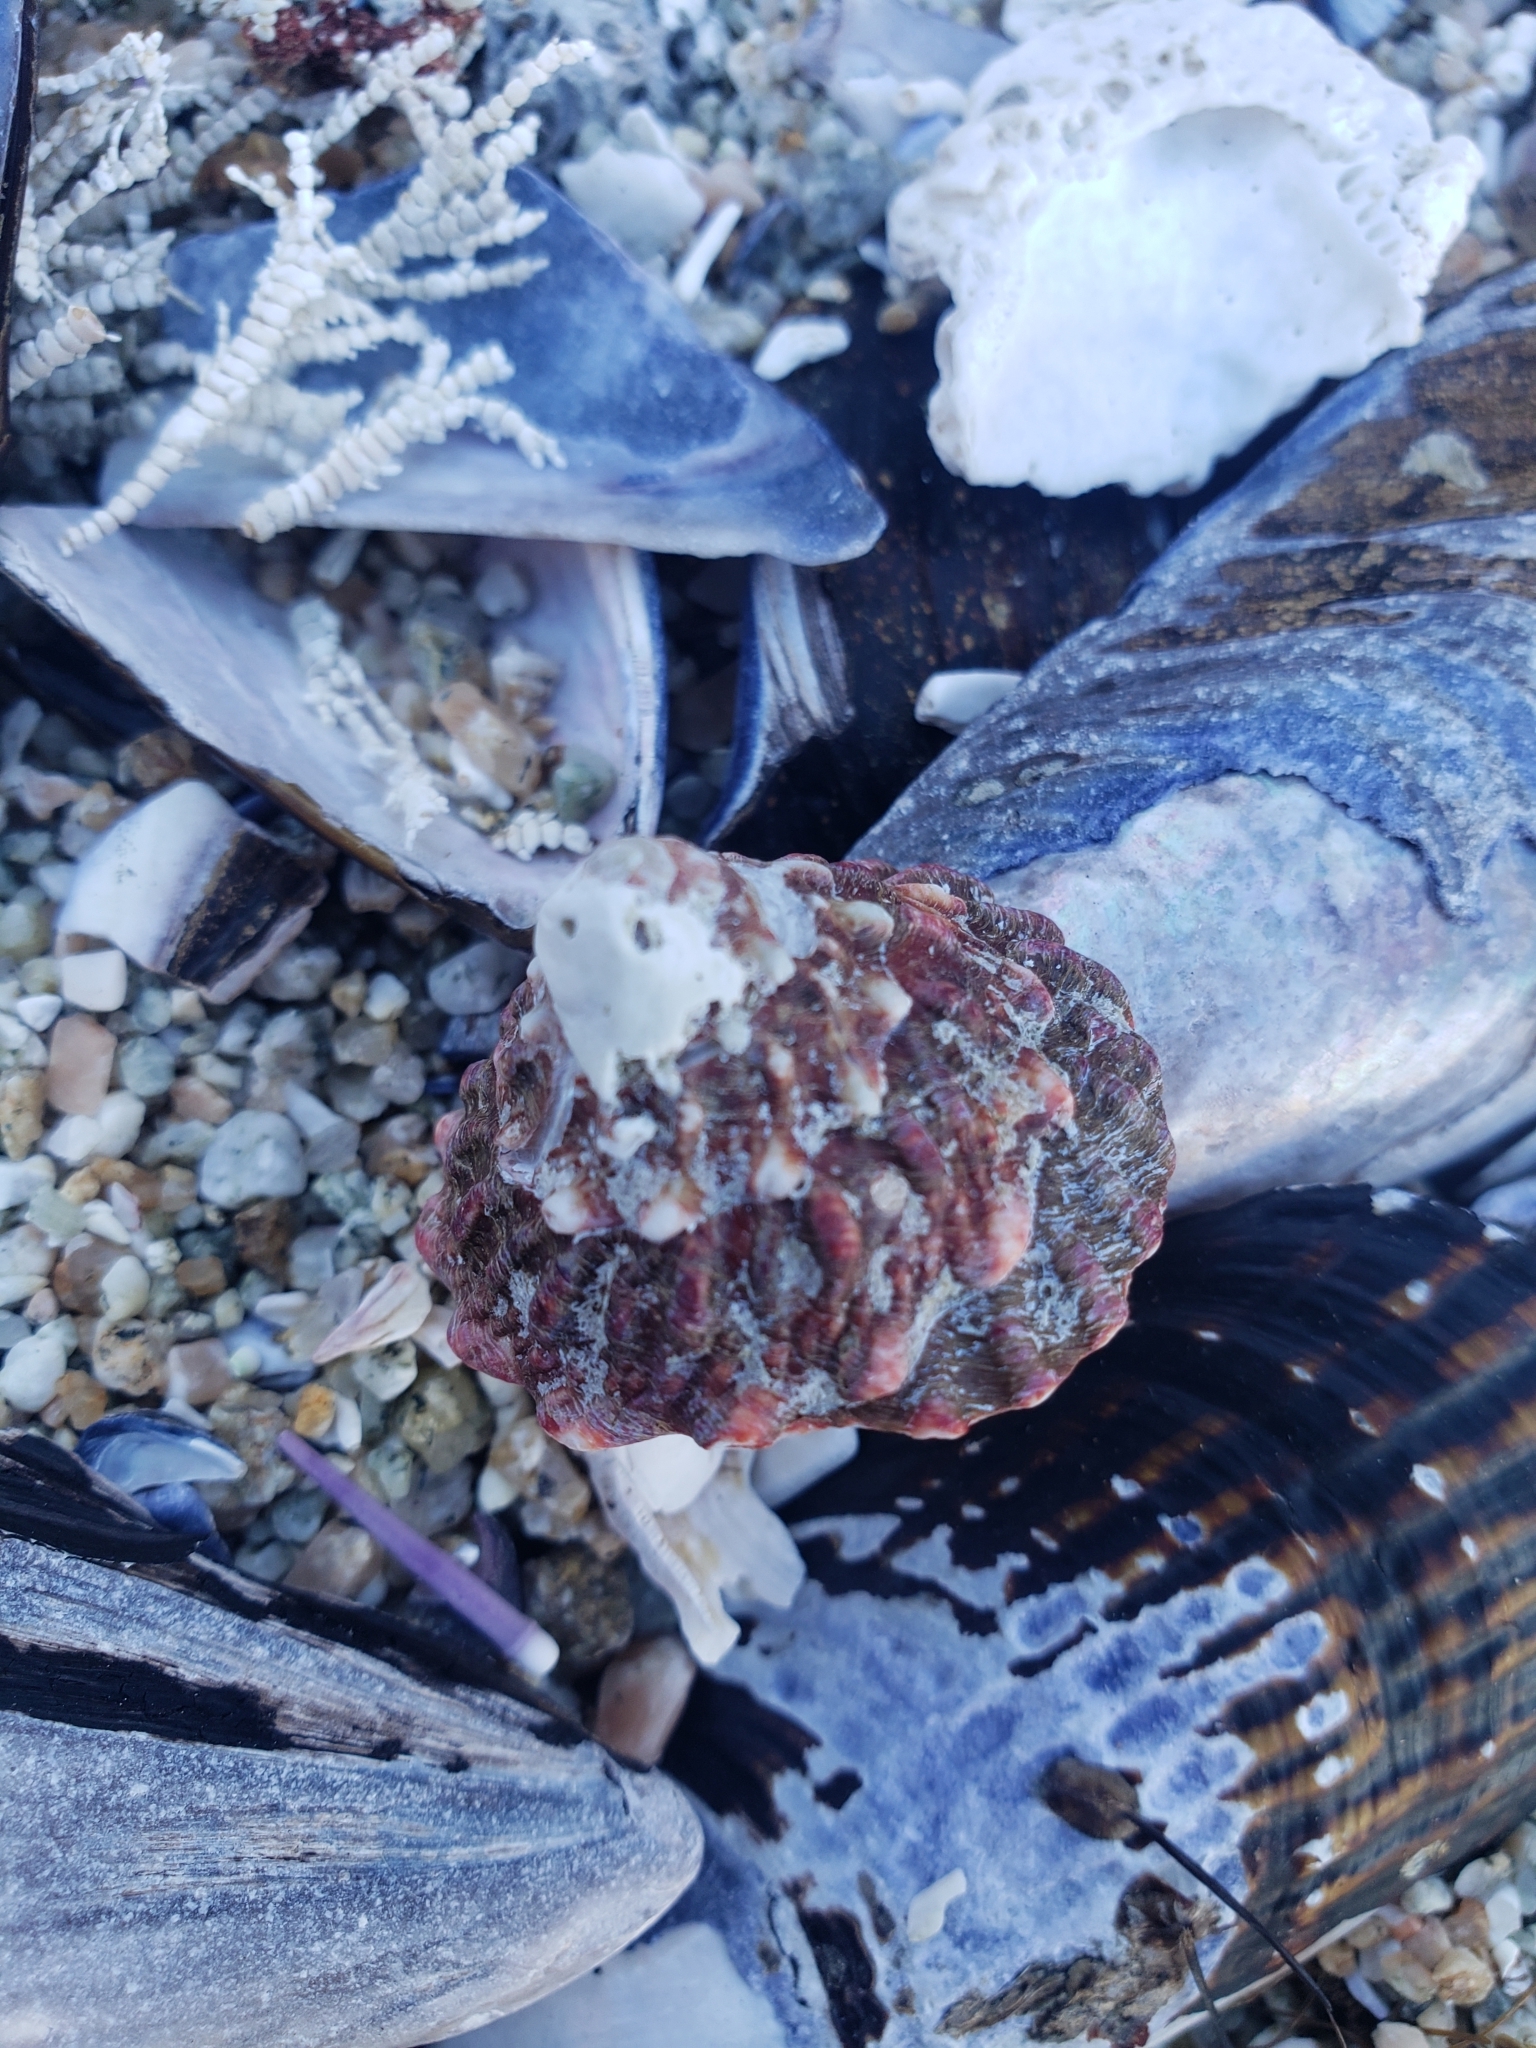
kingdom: Animalia
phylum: Mollusca
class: Gastropoda
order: Trochida
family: Turbinidae
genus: Pomaulax
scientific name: Pomaulax gibberosus
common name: Red turban
